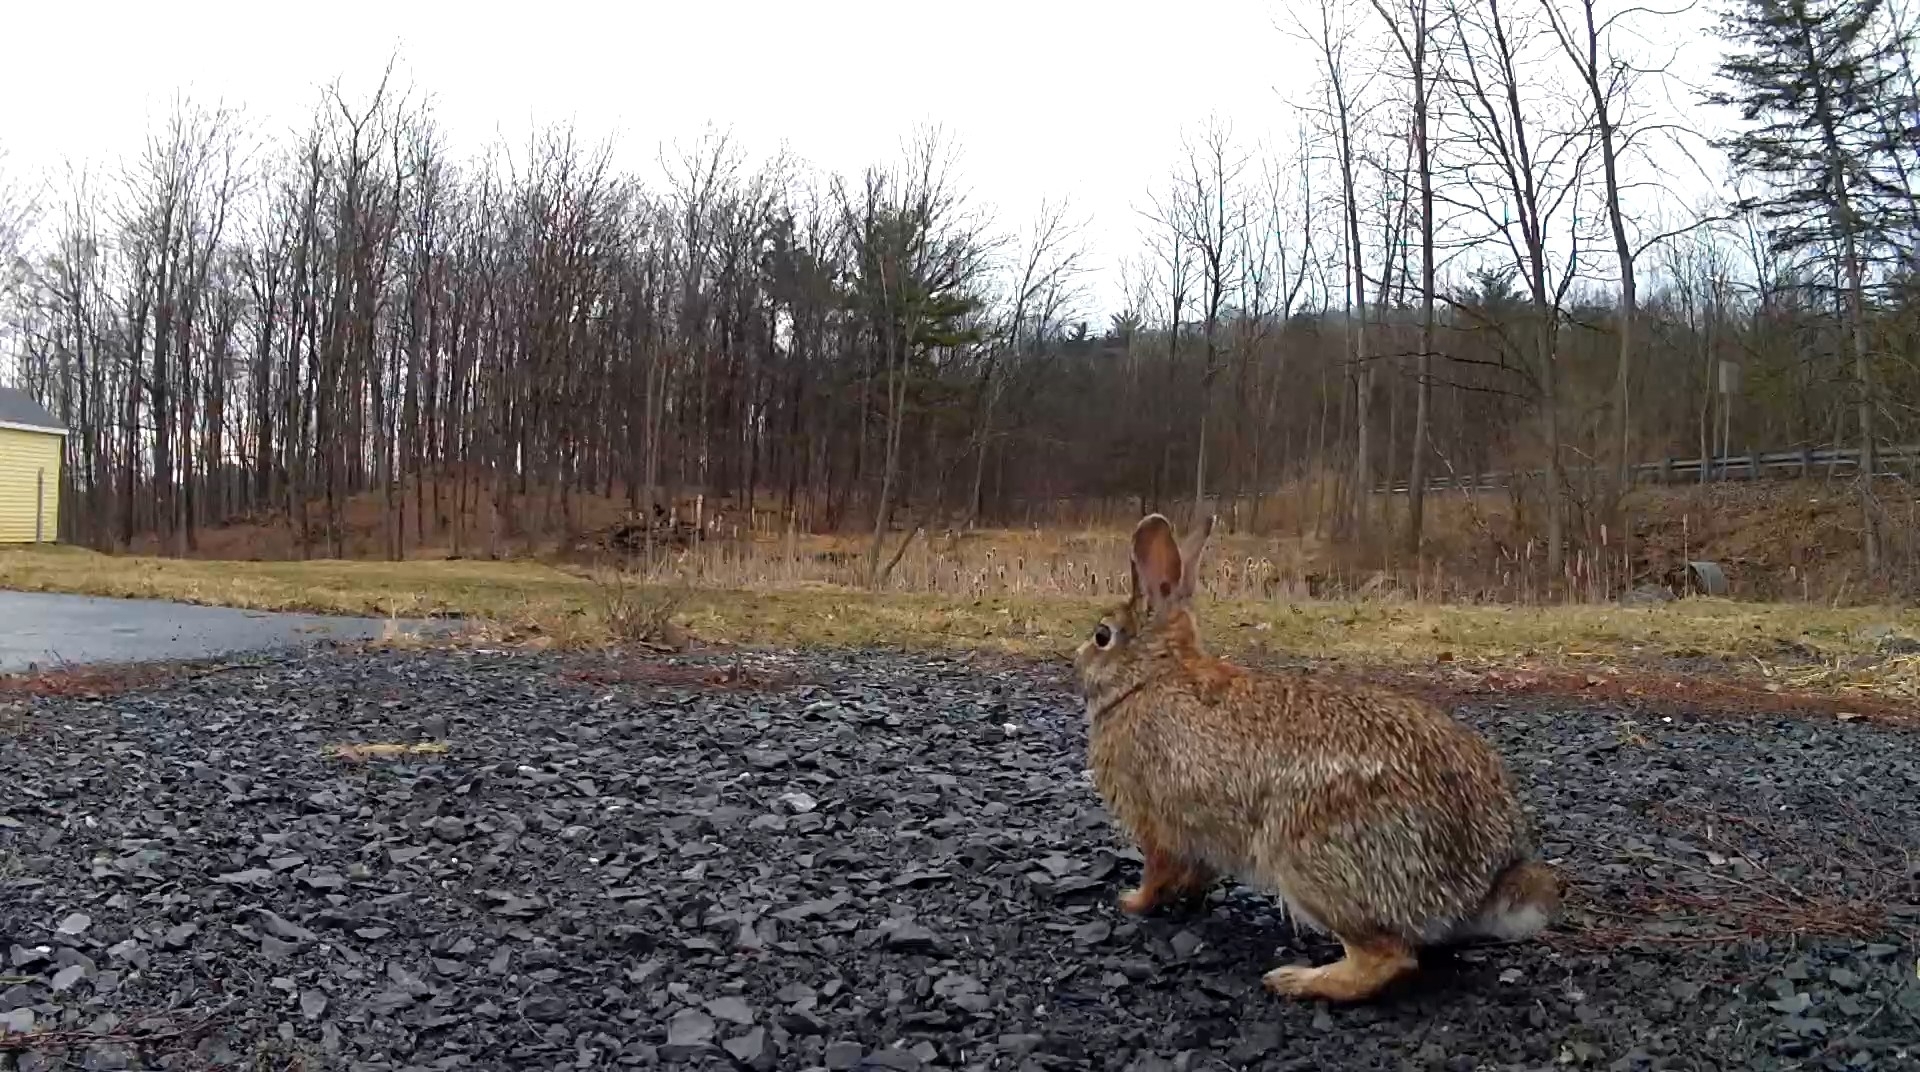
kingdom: Animalia
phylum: Chordata
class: Mammalia
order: Lagomorpha
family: Leporidae
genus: Sylvilagus
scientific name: Sylvilagus floridanus
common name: Eastern cottontail
